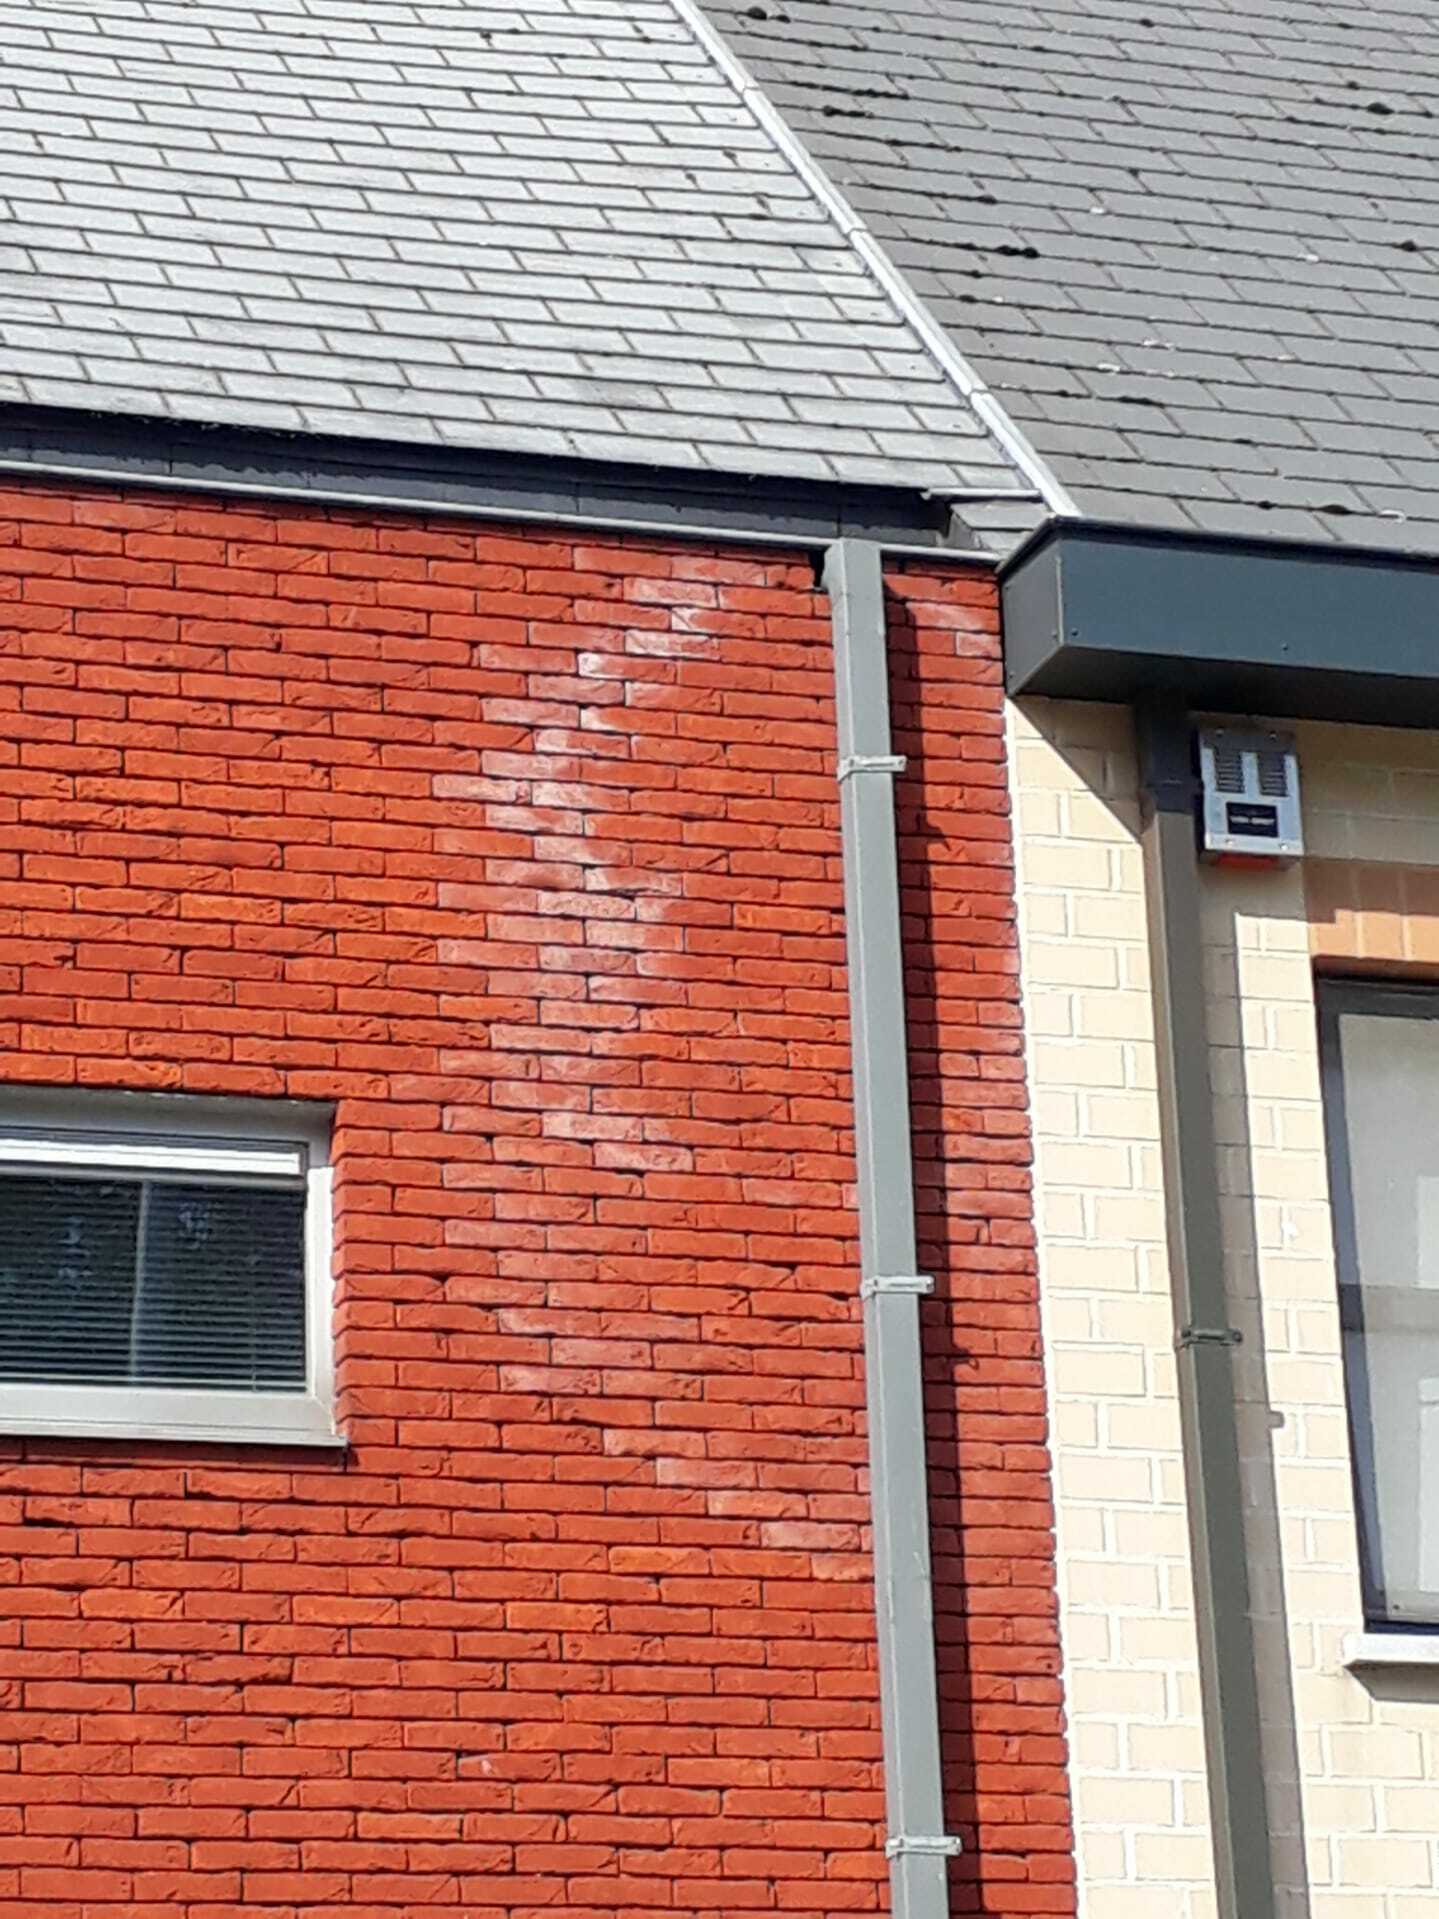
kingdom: Animalia
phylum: Arthropoda
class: Insecta
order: Hymenoptera
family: Vespidae
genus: Vespa
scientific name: Vespa velutina
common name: Asian hornet
